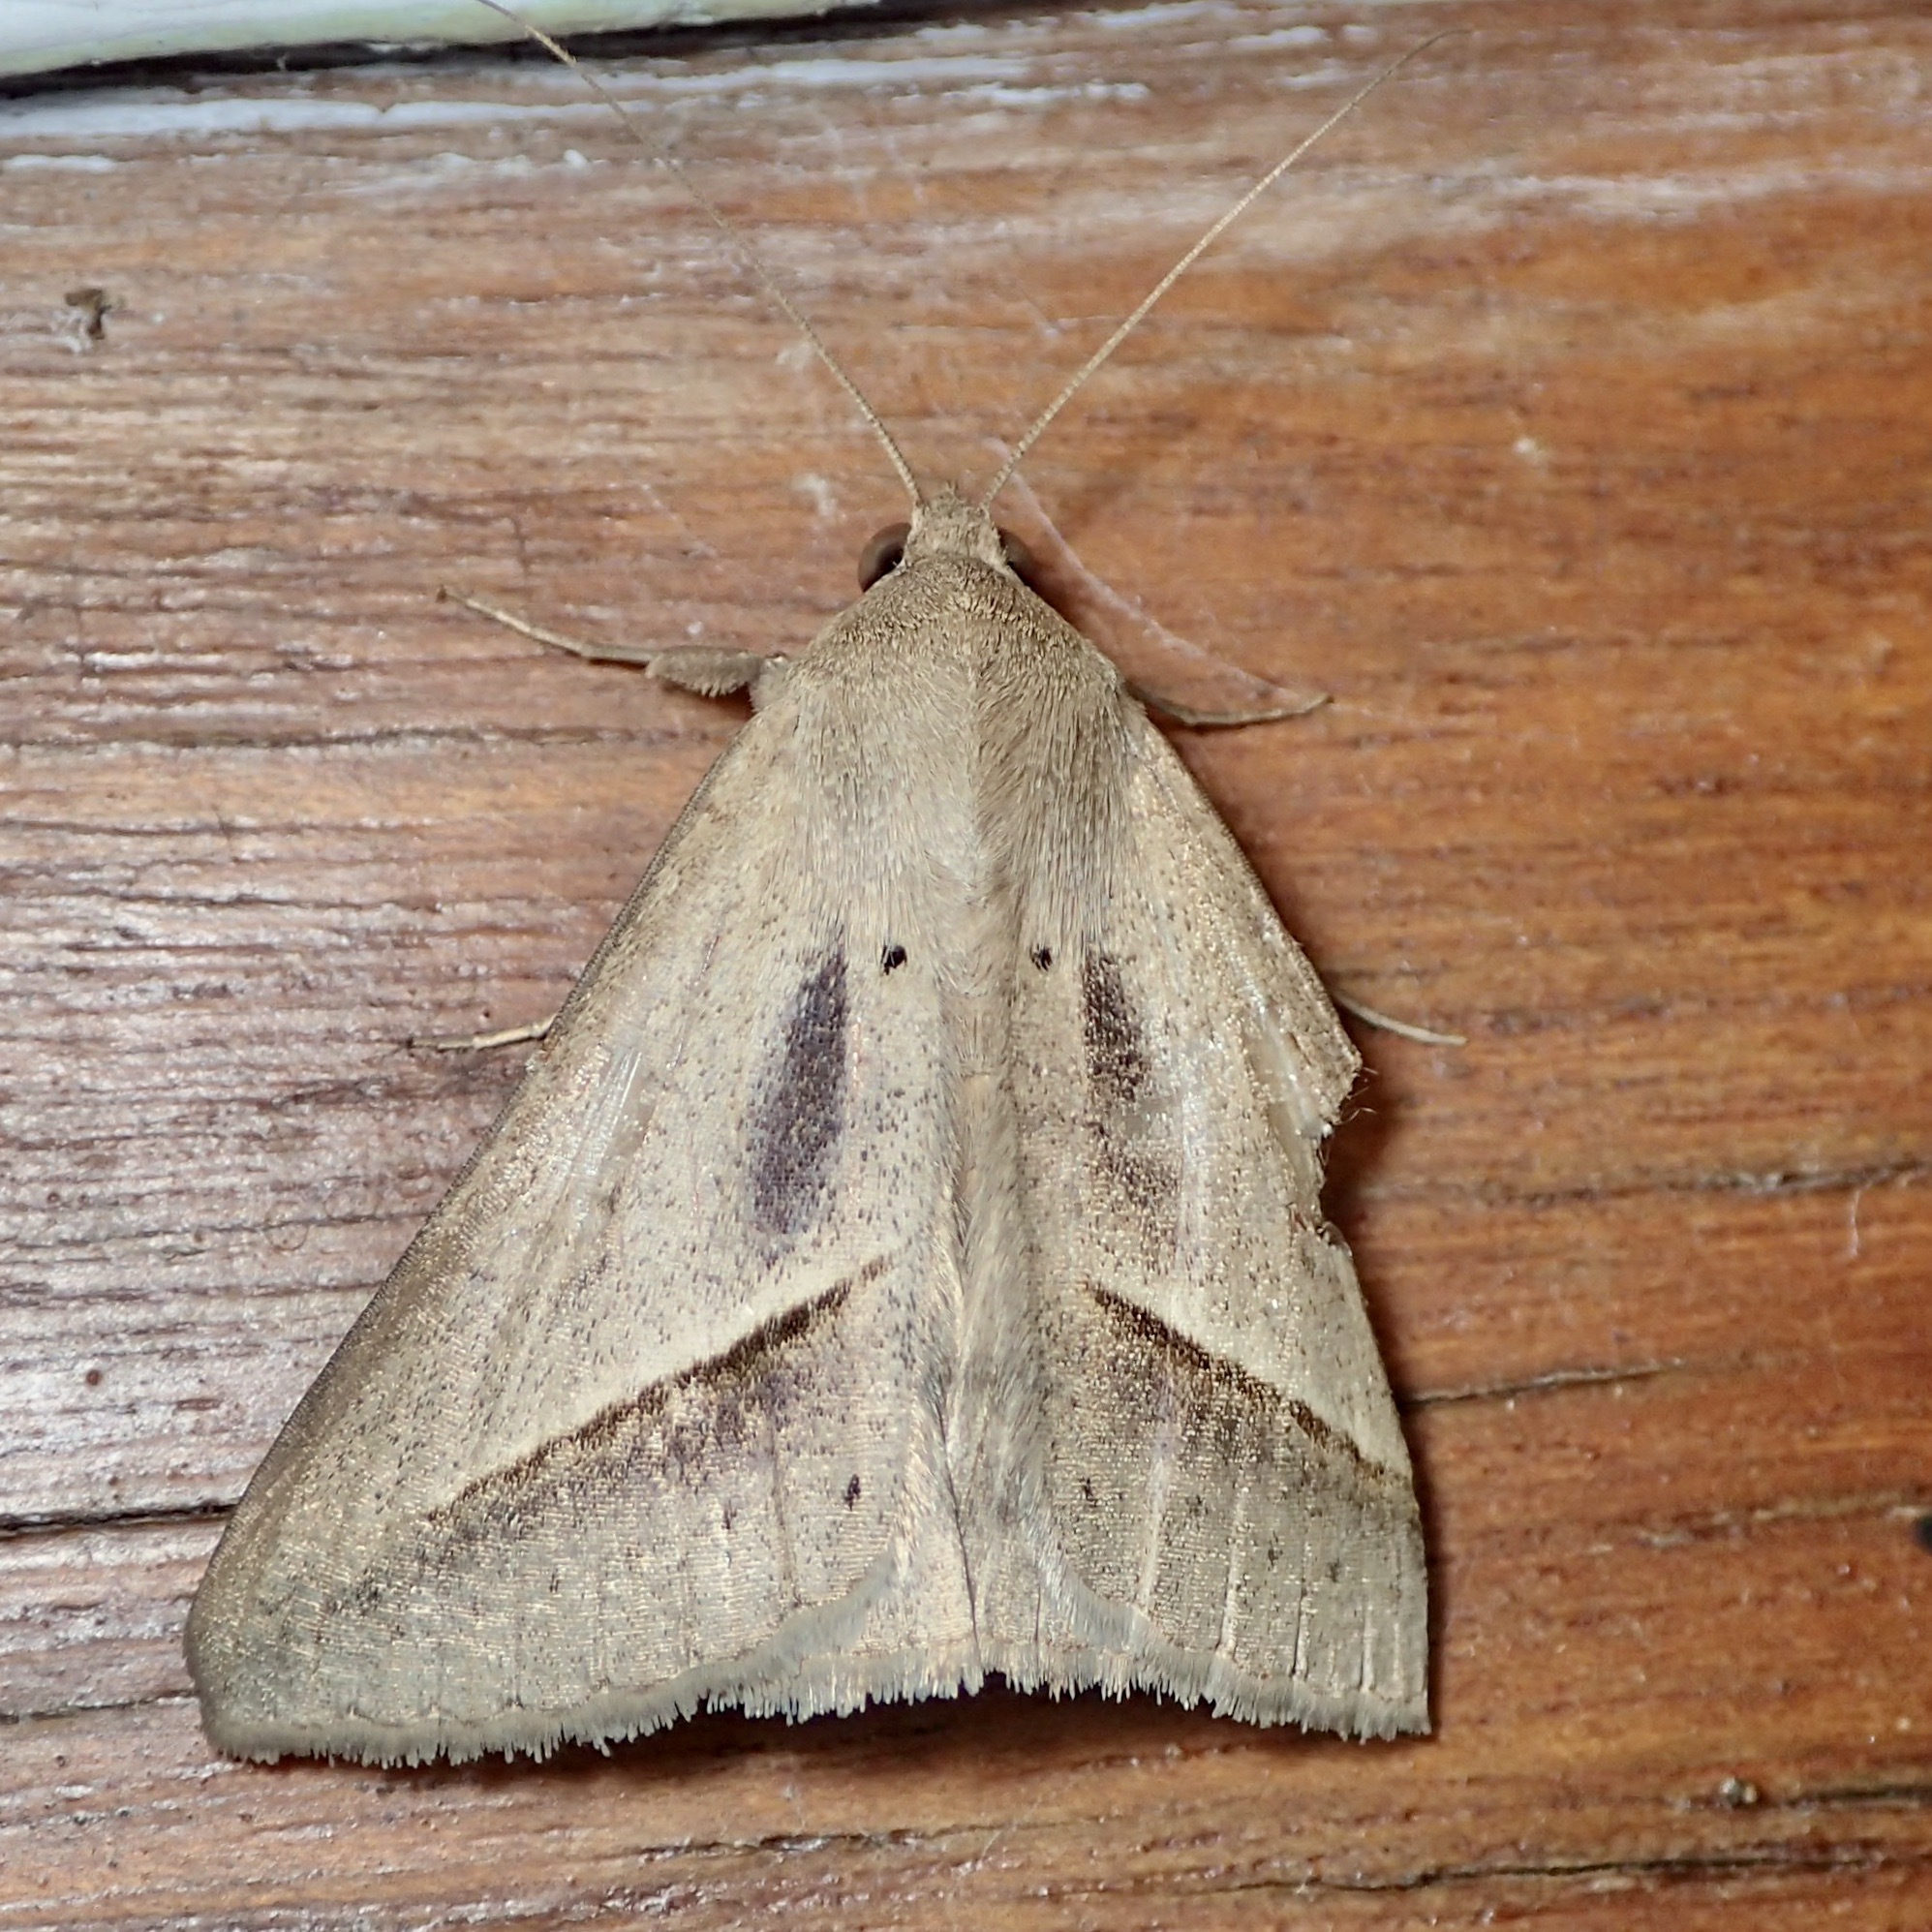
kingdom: Animalia
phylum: Arthropoda
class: Insecta
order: Lepidoptera
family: Erebidae
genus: Mocis
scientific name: Mocis frugalis
